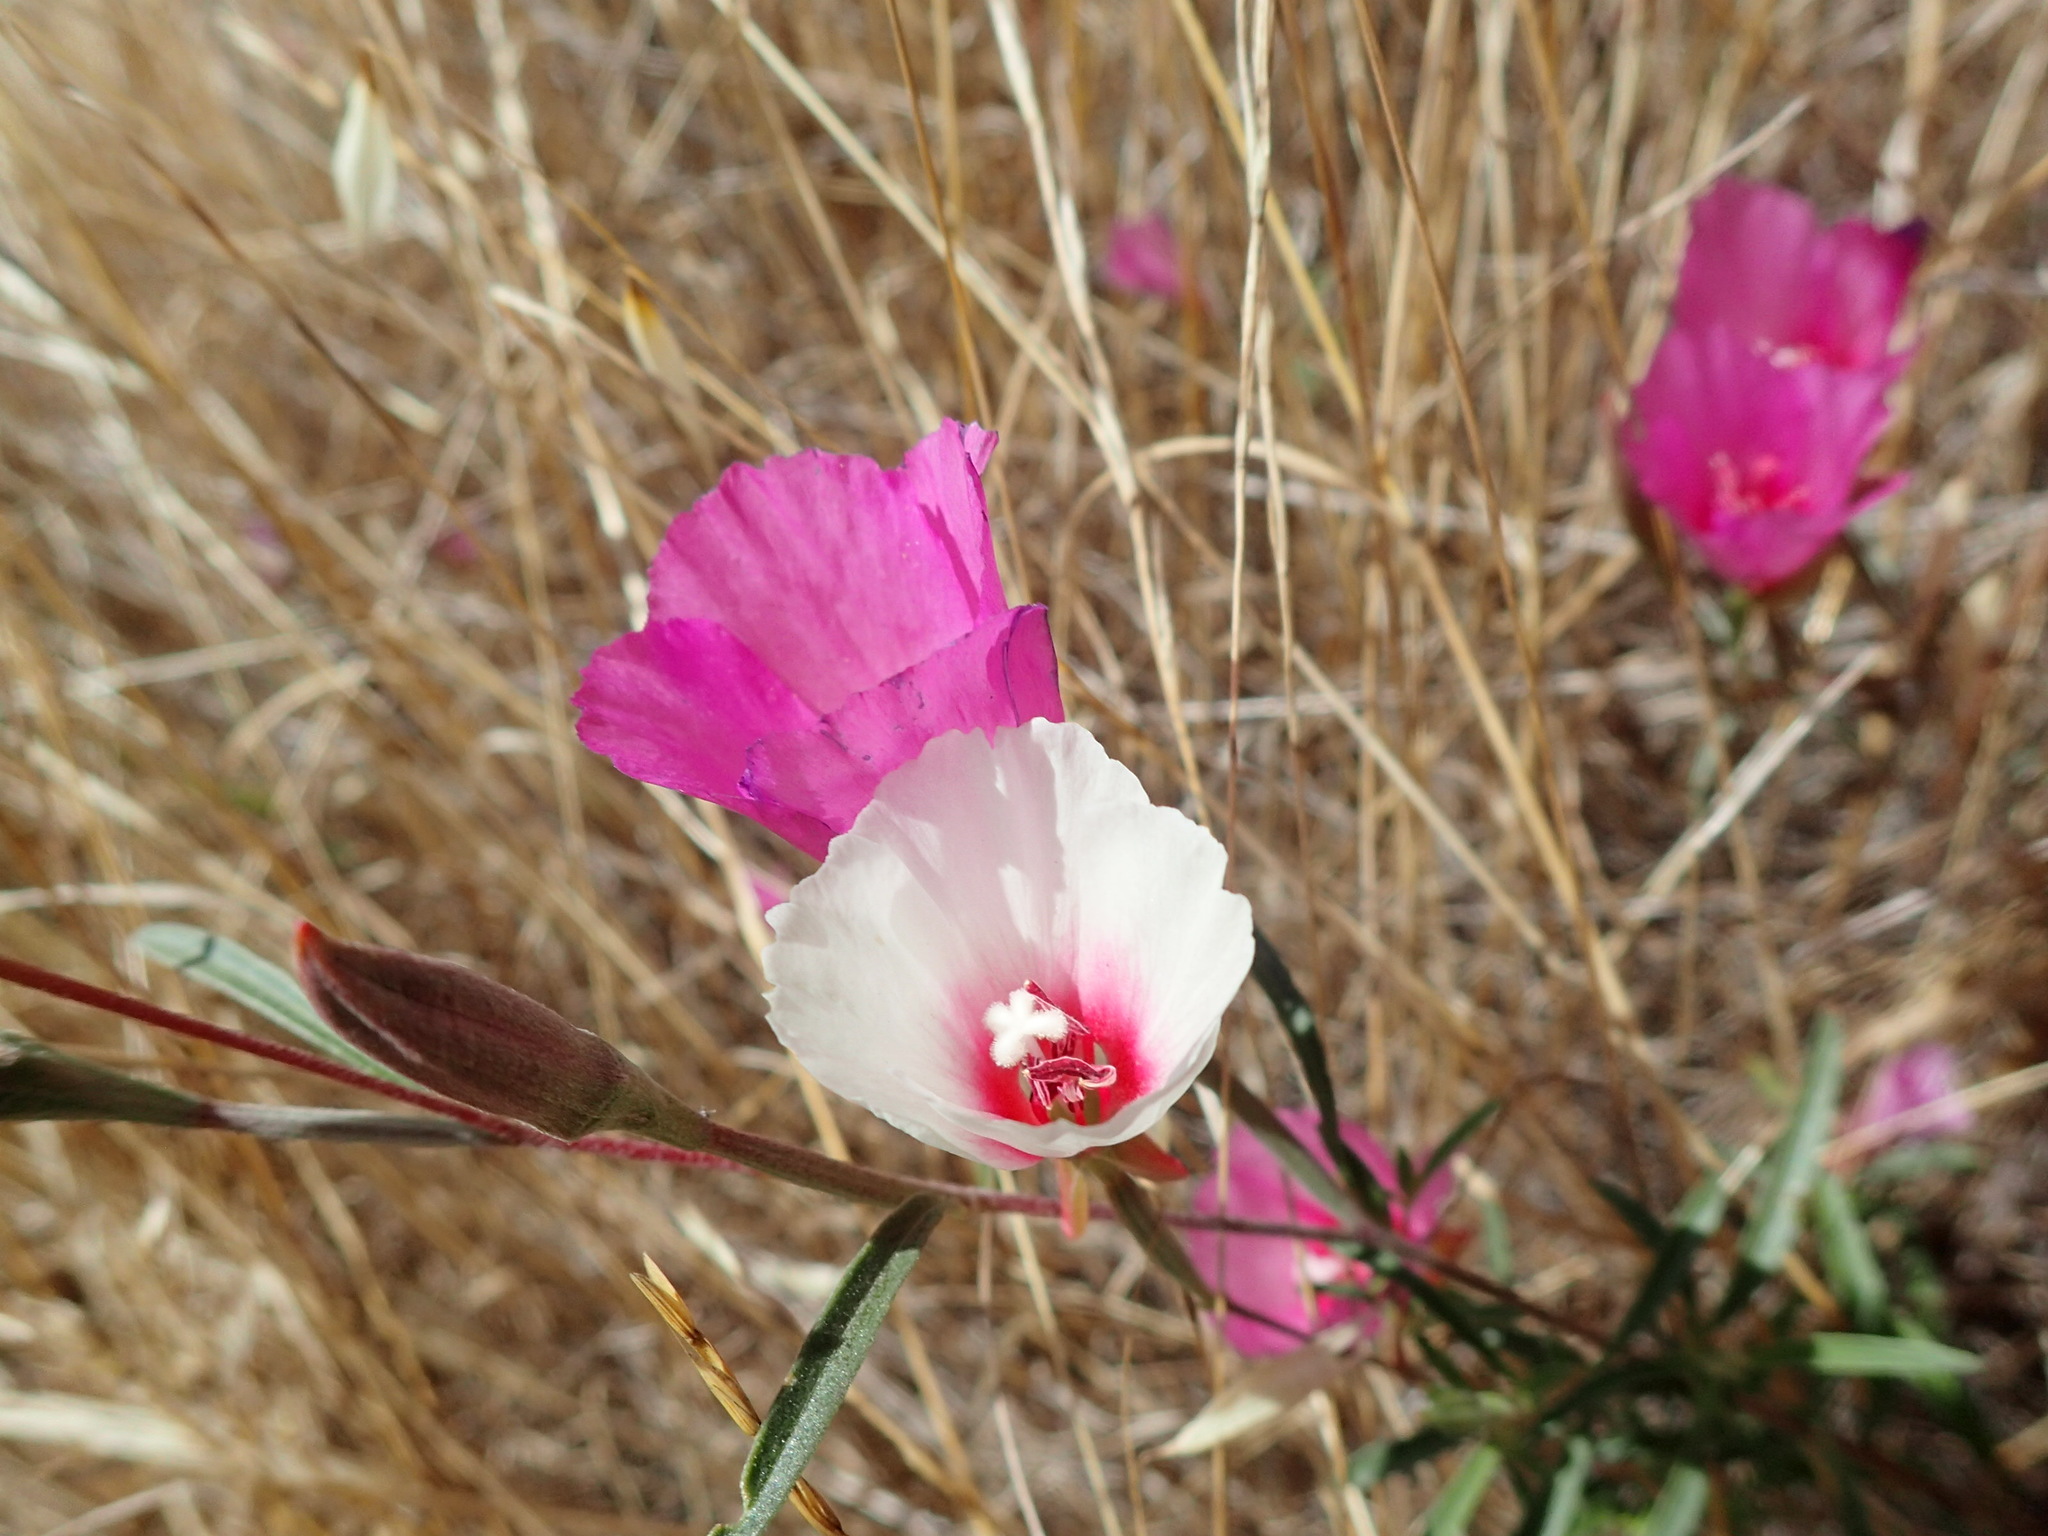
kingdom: Plantae
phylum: Tracheophyta
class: Magnoliopsida
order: Myrtales
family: Onagraceae
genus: Clarkia
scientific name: Clarkia rubicunda
